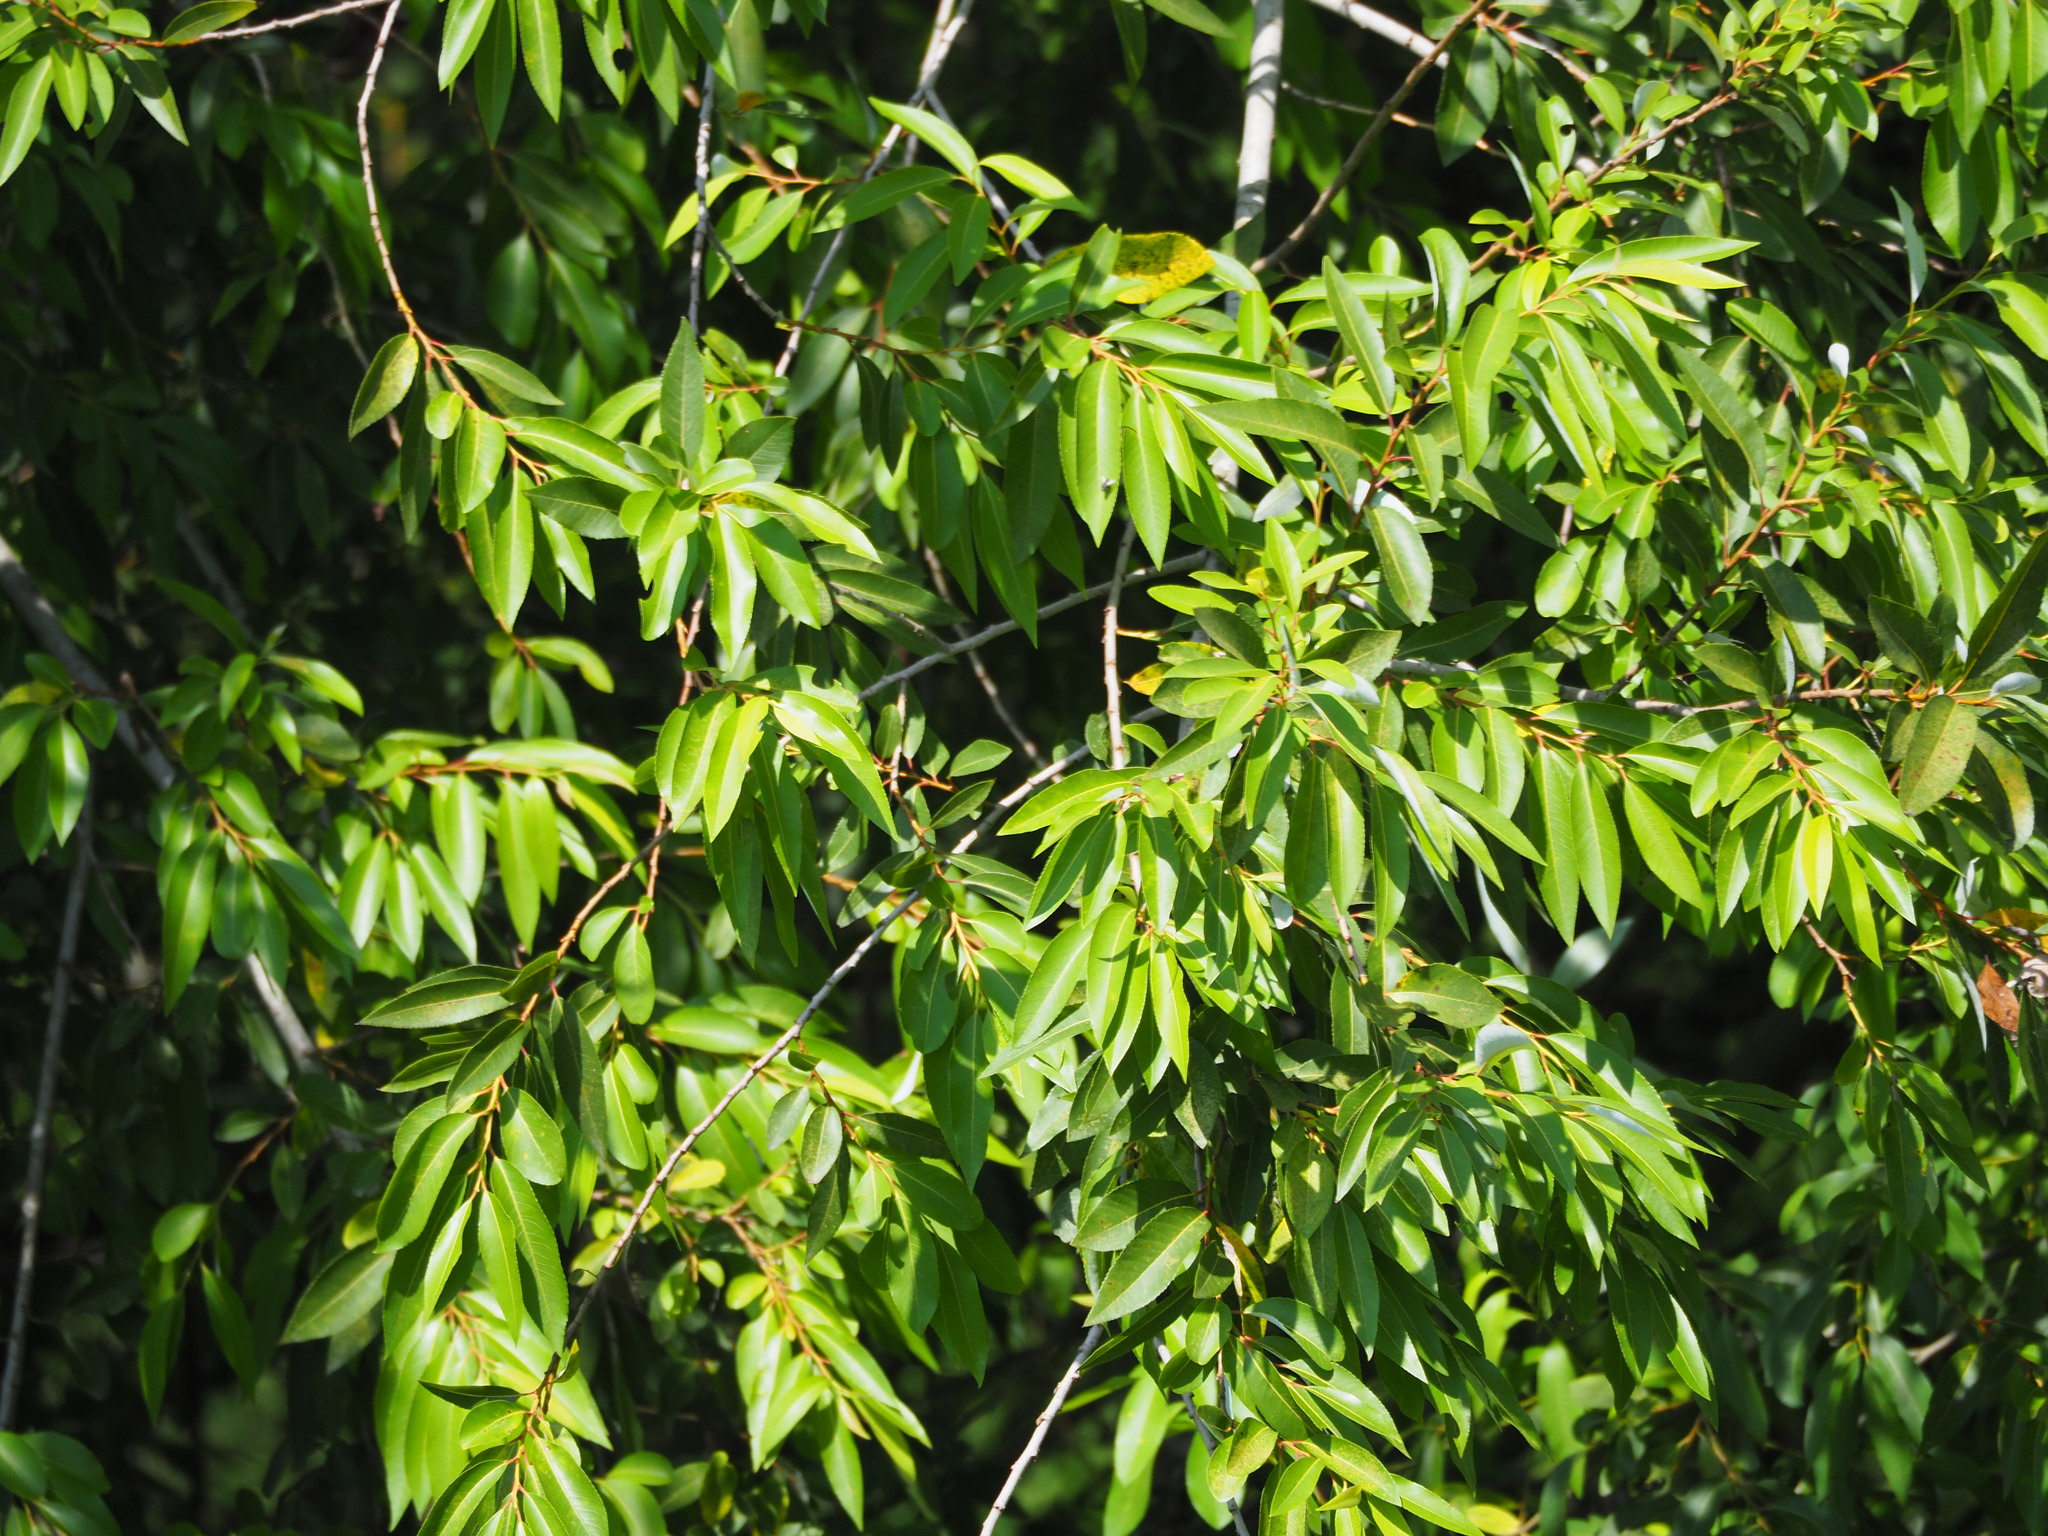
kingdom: Plantae
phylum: Tracheophyta
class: Magnoliopsida
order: Malpighiales
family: Salicaceae
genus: Salix
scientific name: Salix mesnyi
